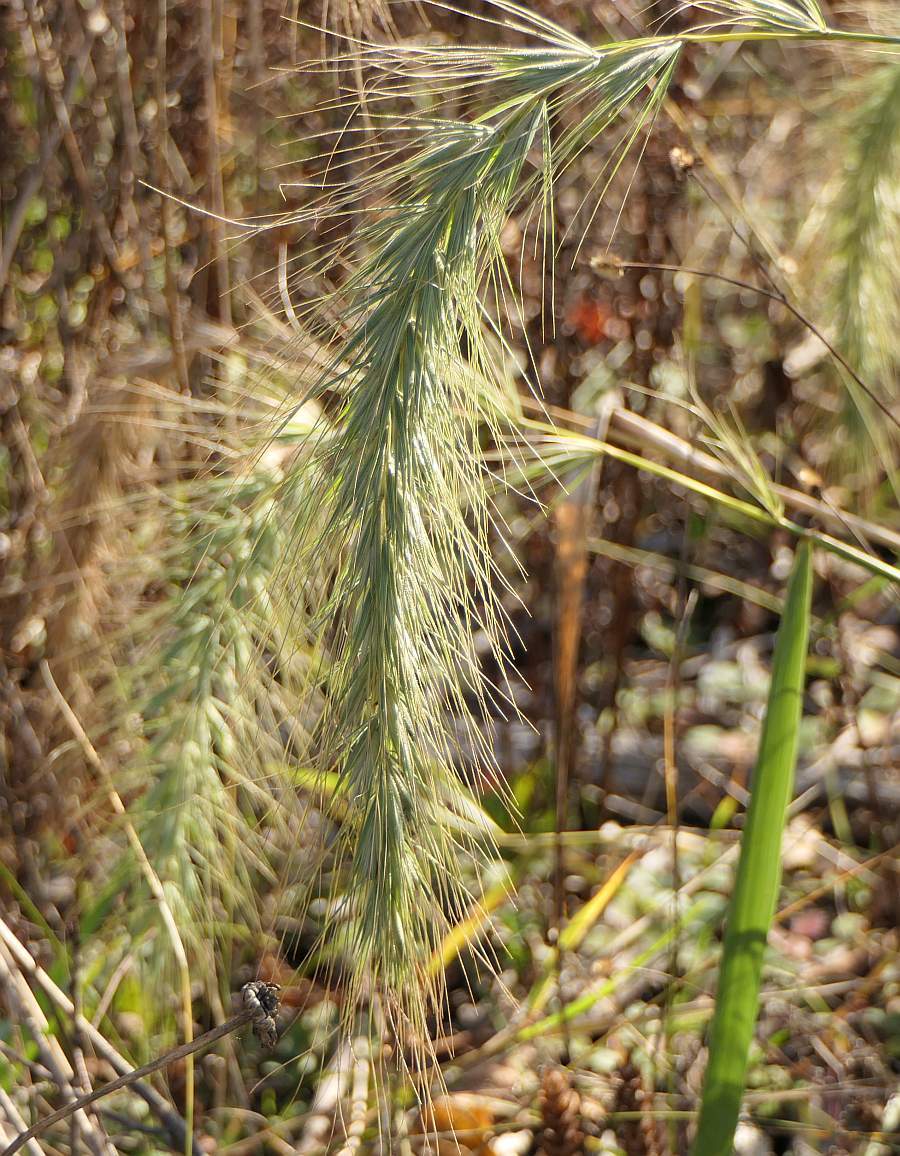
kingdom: Plantae
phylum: Tracheophyta
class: Liliopsida
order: Poales
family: Poaceae
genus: Elymus
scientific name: Elymus canadensis
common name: Canada wild rye
